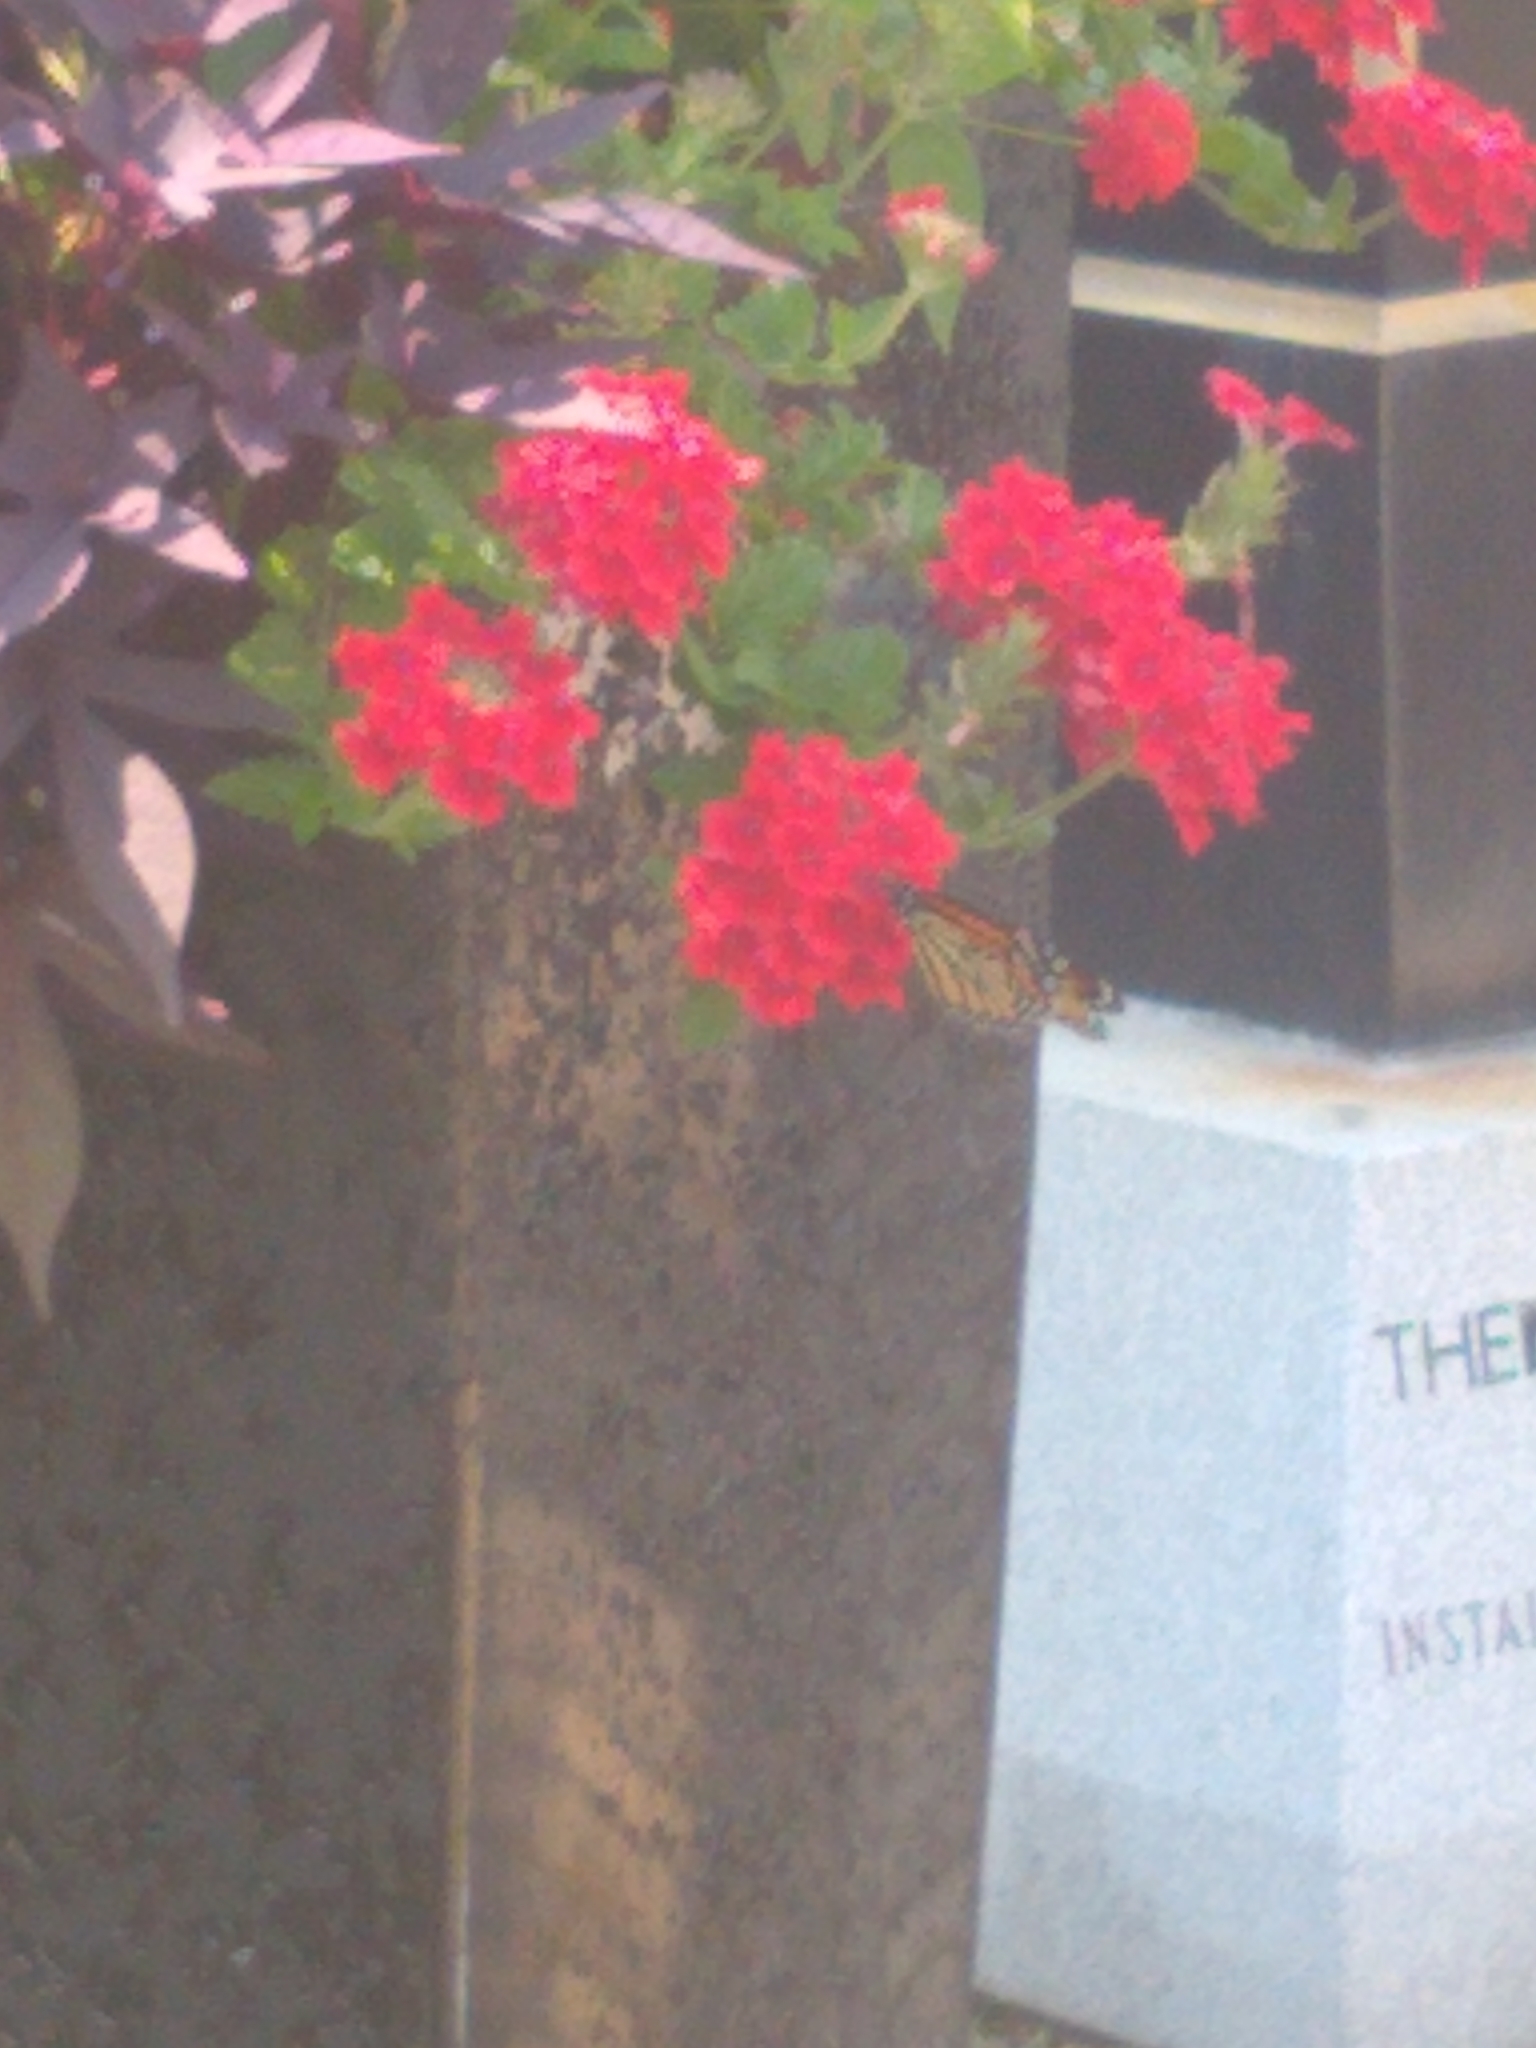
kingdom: Animalia
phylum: Arthropoda
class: Insecta
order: Lepidoptera
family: Nymphalidae
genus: Danaus
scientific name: Danaus plexippus
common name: Monarch
